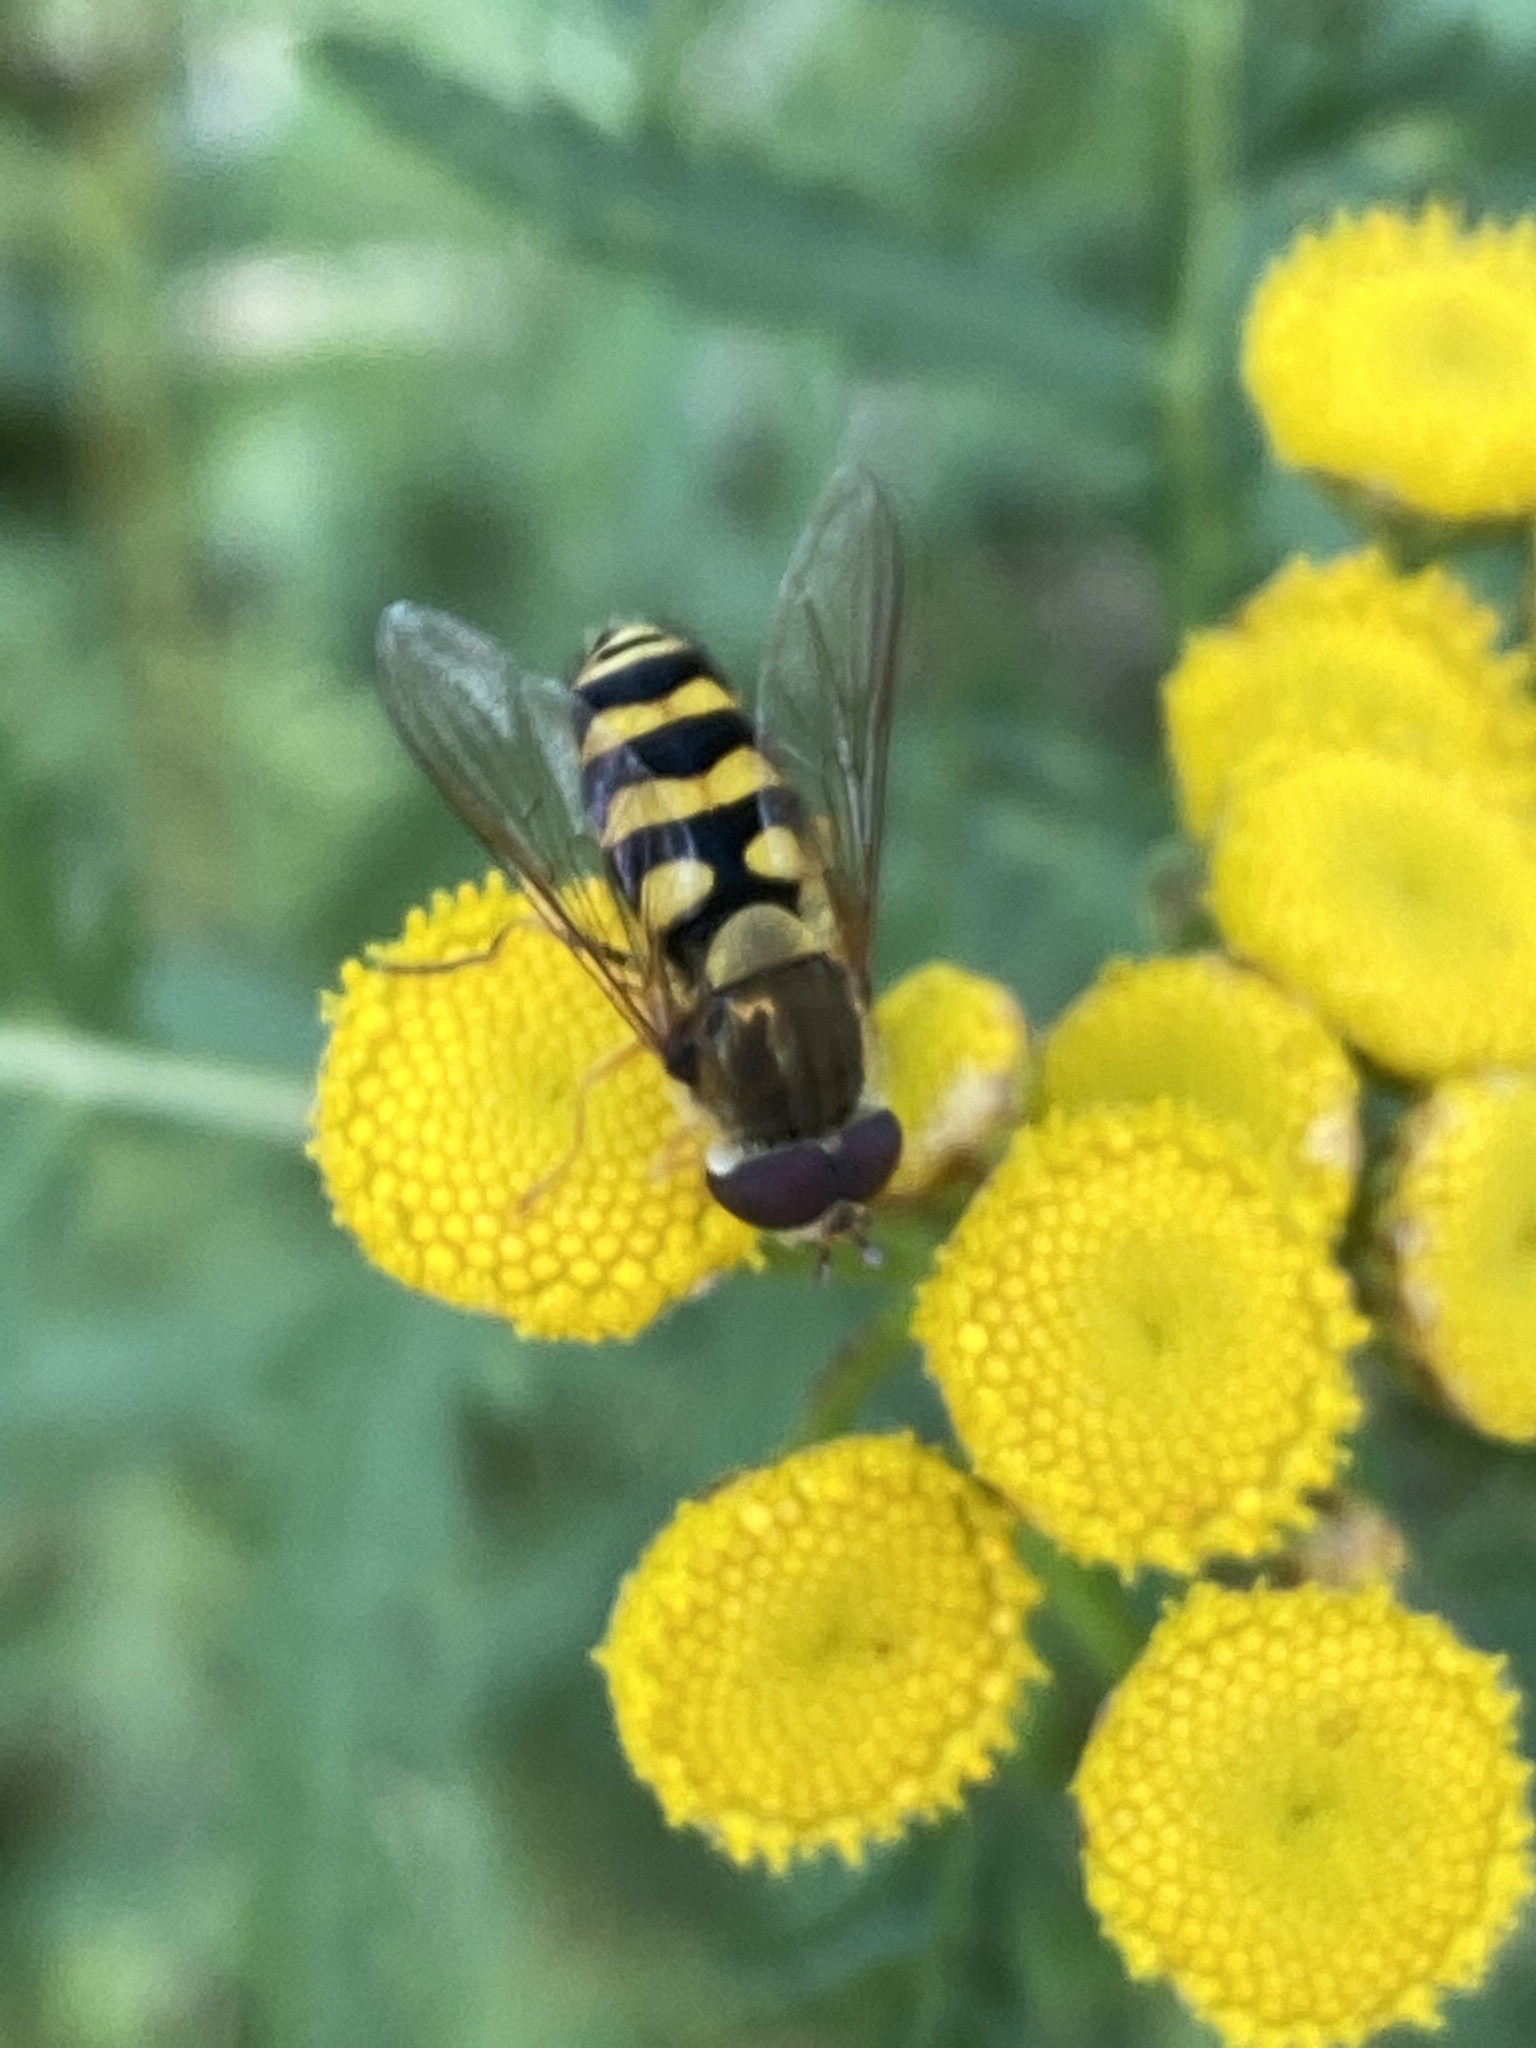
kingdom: Animalia
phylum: Arthropoda
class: Insecta
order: Diptera
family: Syrphidae
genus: Syrphus
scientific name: Syrphus
